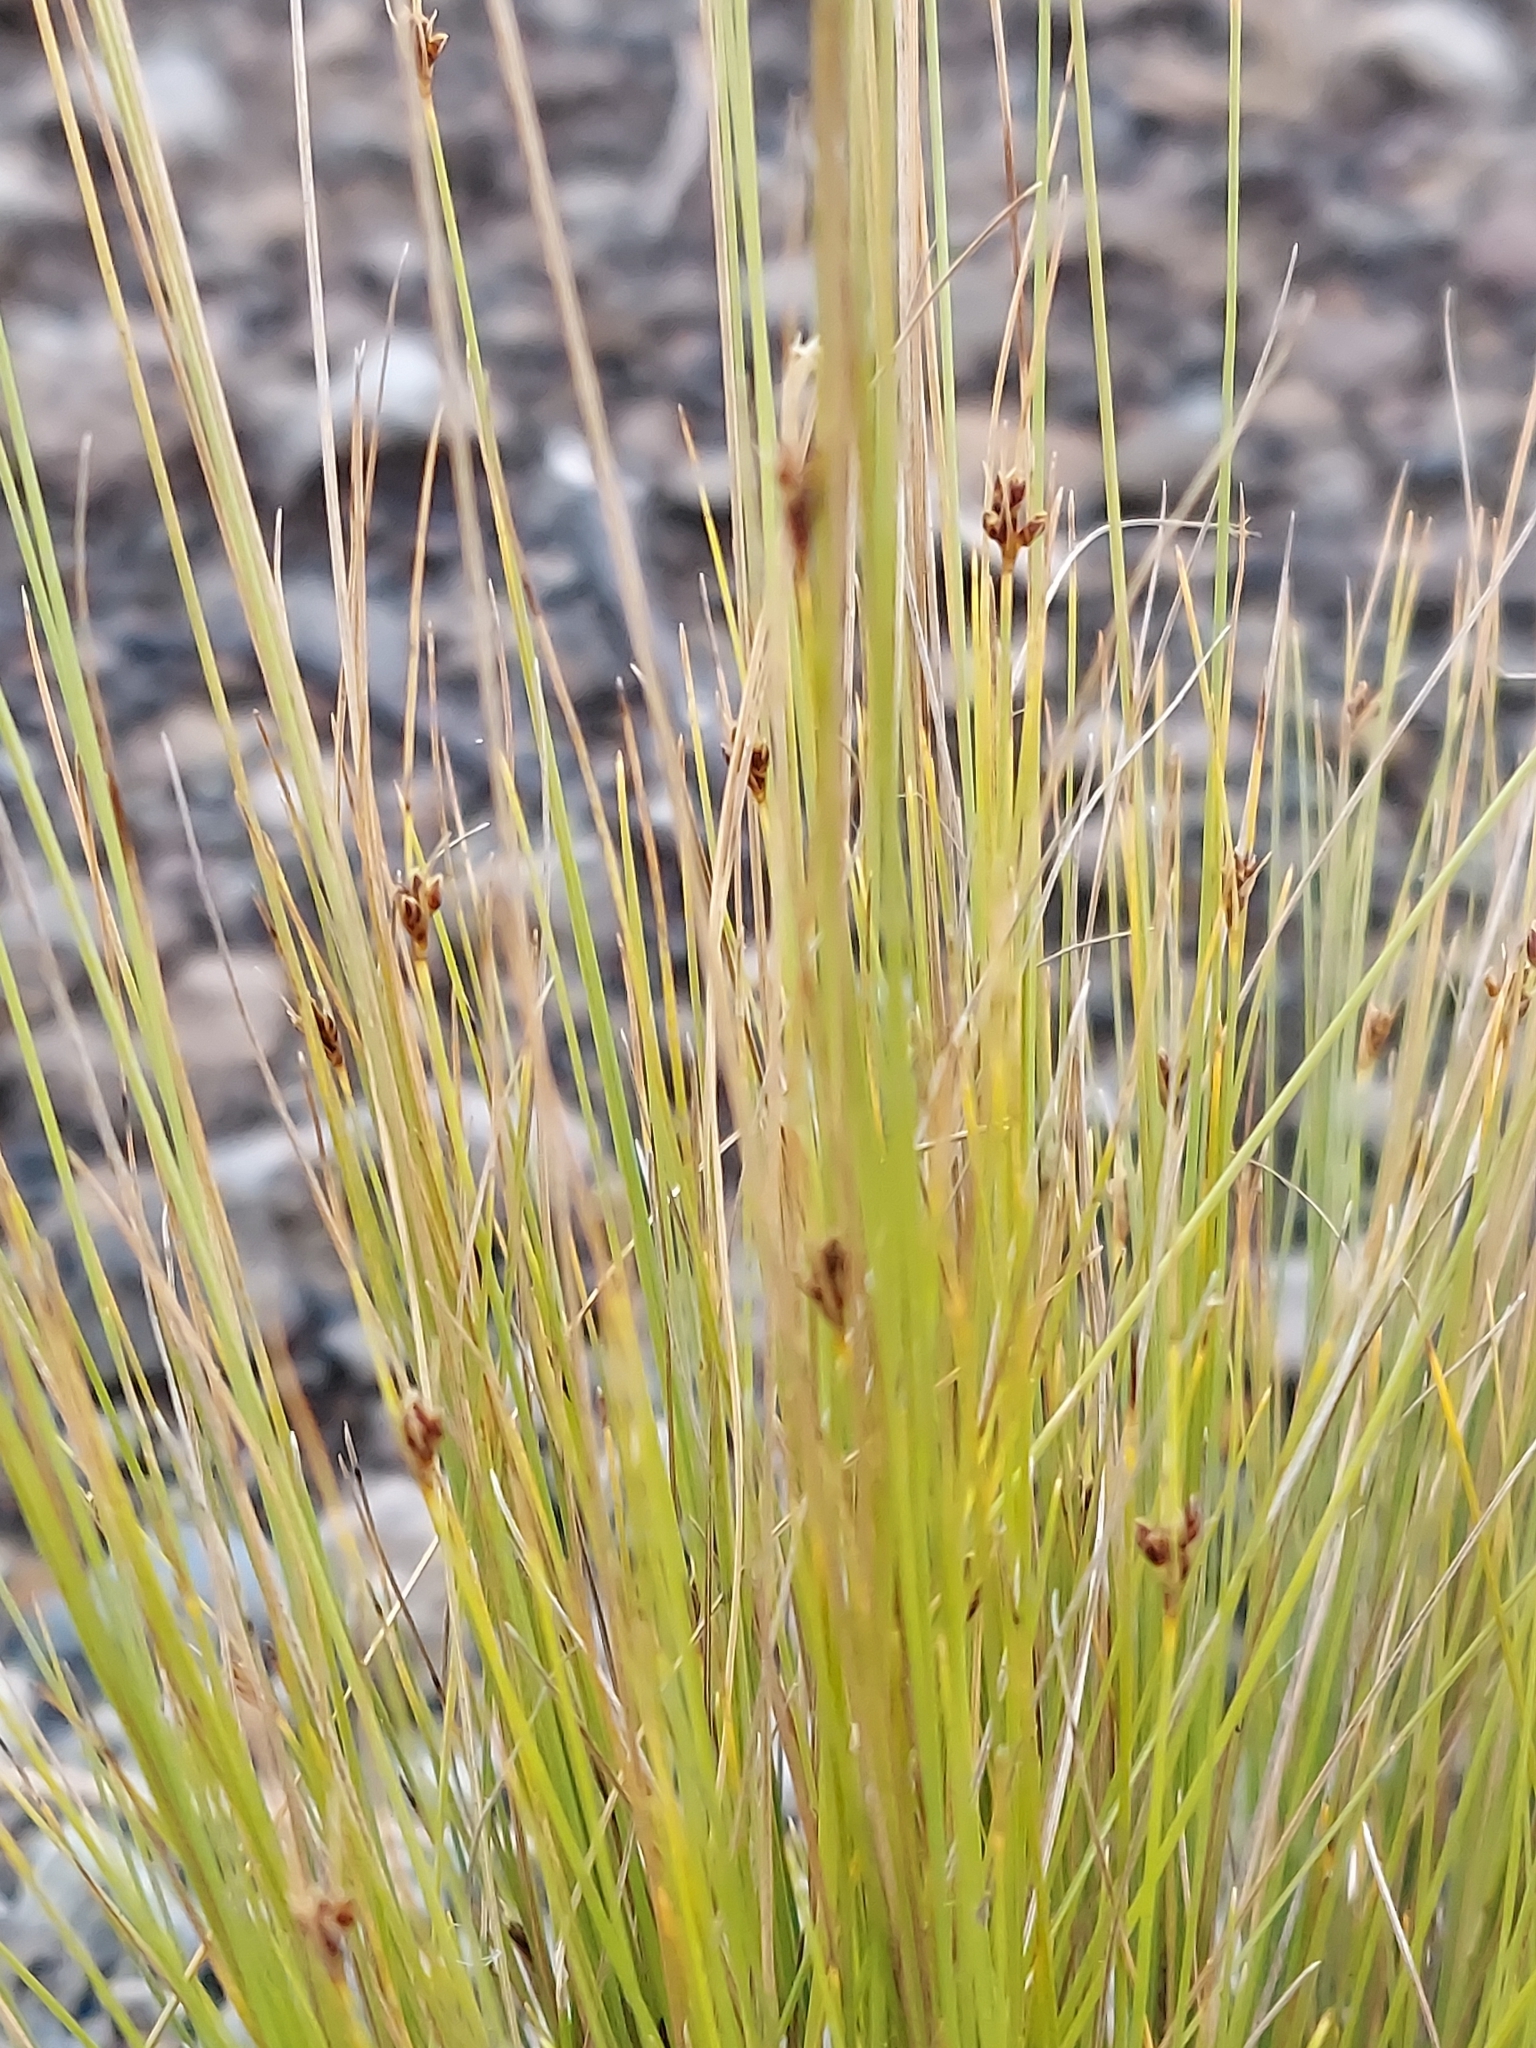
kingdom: Plantae
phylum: Tracheophyta
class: Liliopsida
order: Poales
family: Cyperaceae
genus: Bulbostylis
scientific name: Bulbostylis capillaris
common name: Densetuft hairsedge
